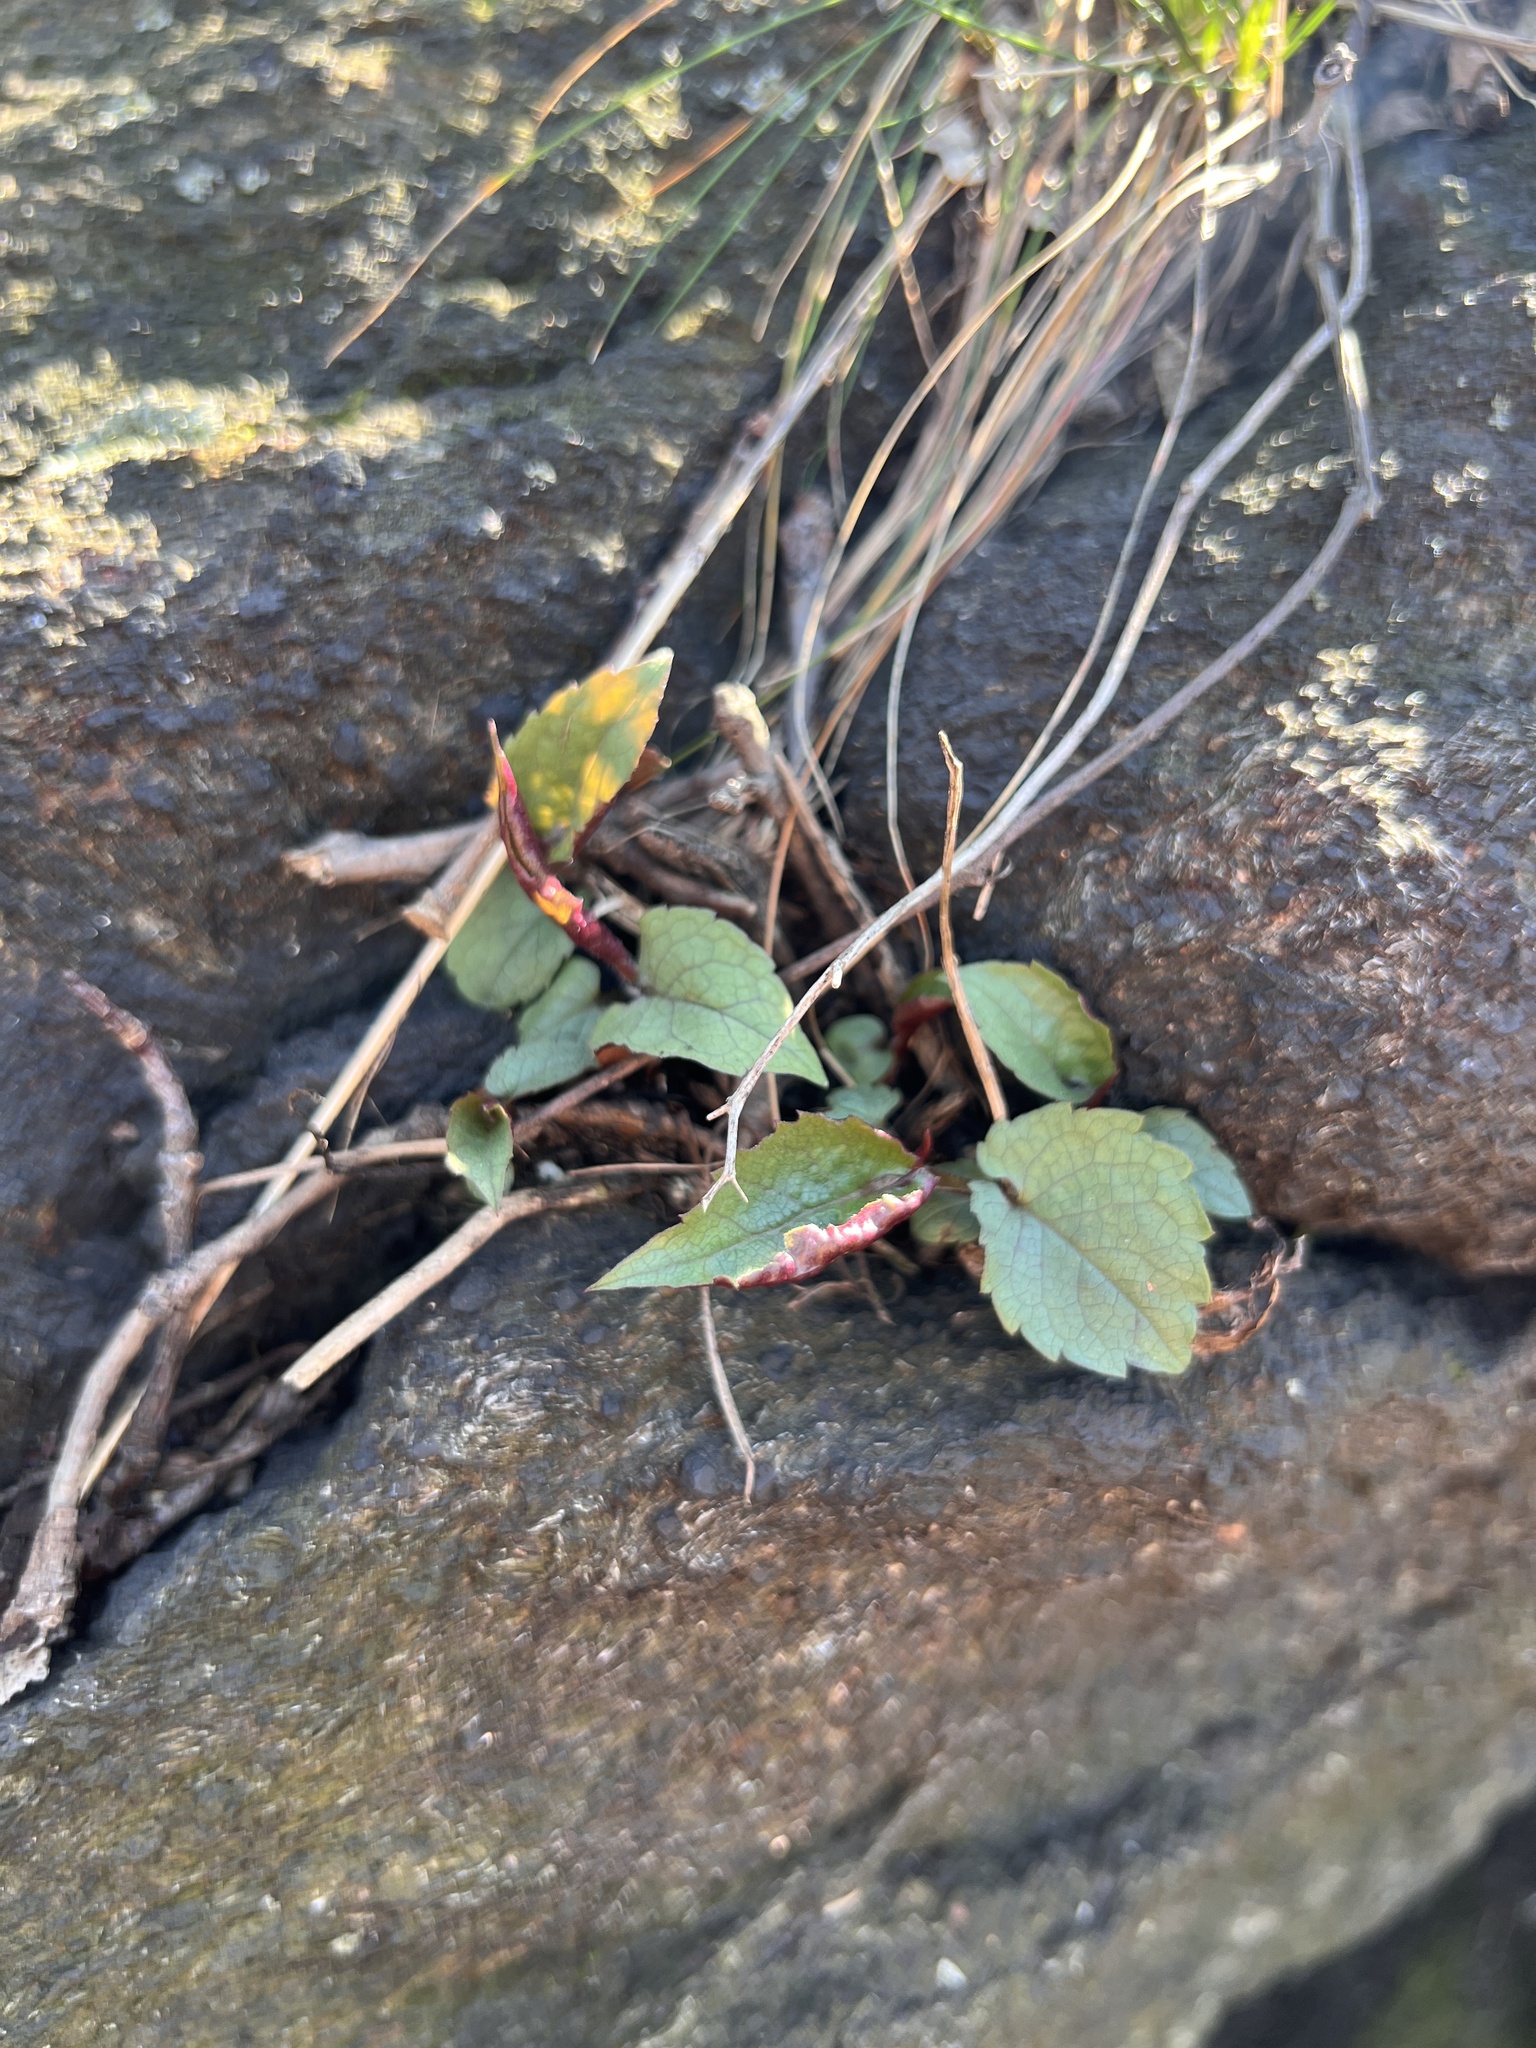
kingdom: Plantae
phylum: Tracheophyta
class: Magnoliopsida
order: Asterales
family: Asteraceae
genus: Eurybia
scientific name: Eurybia divaricata
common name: White wood aster
